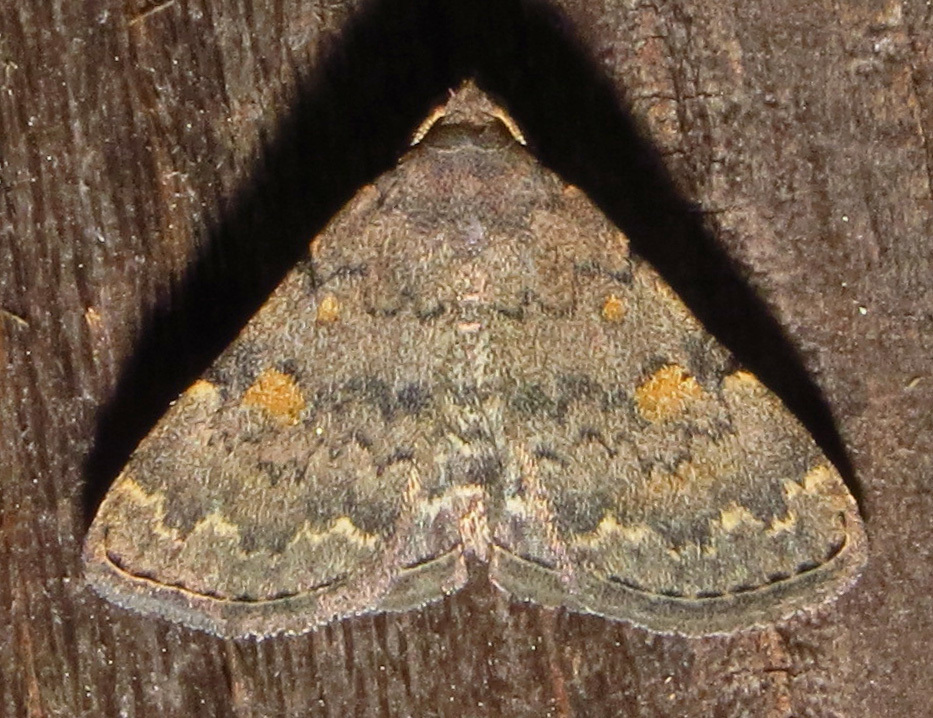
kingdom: Animalia
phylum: Arthropoda
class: Insecta
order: Lepidoptera
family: Erebidae
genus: Idia
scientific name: Idia aemula
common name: Common idia moth
